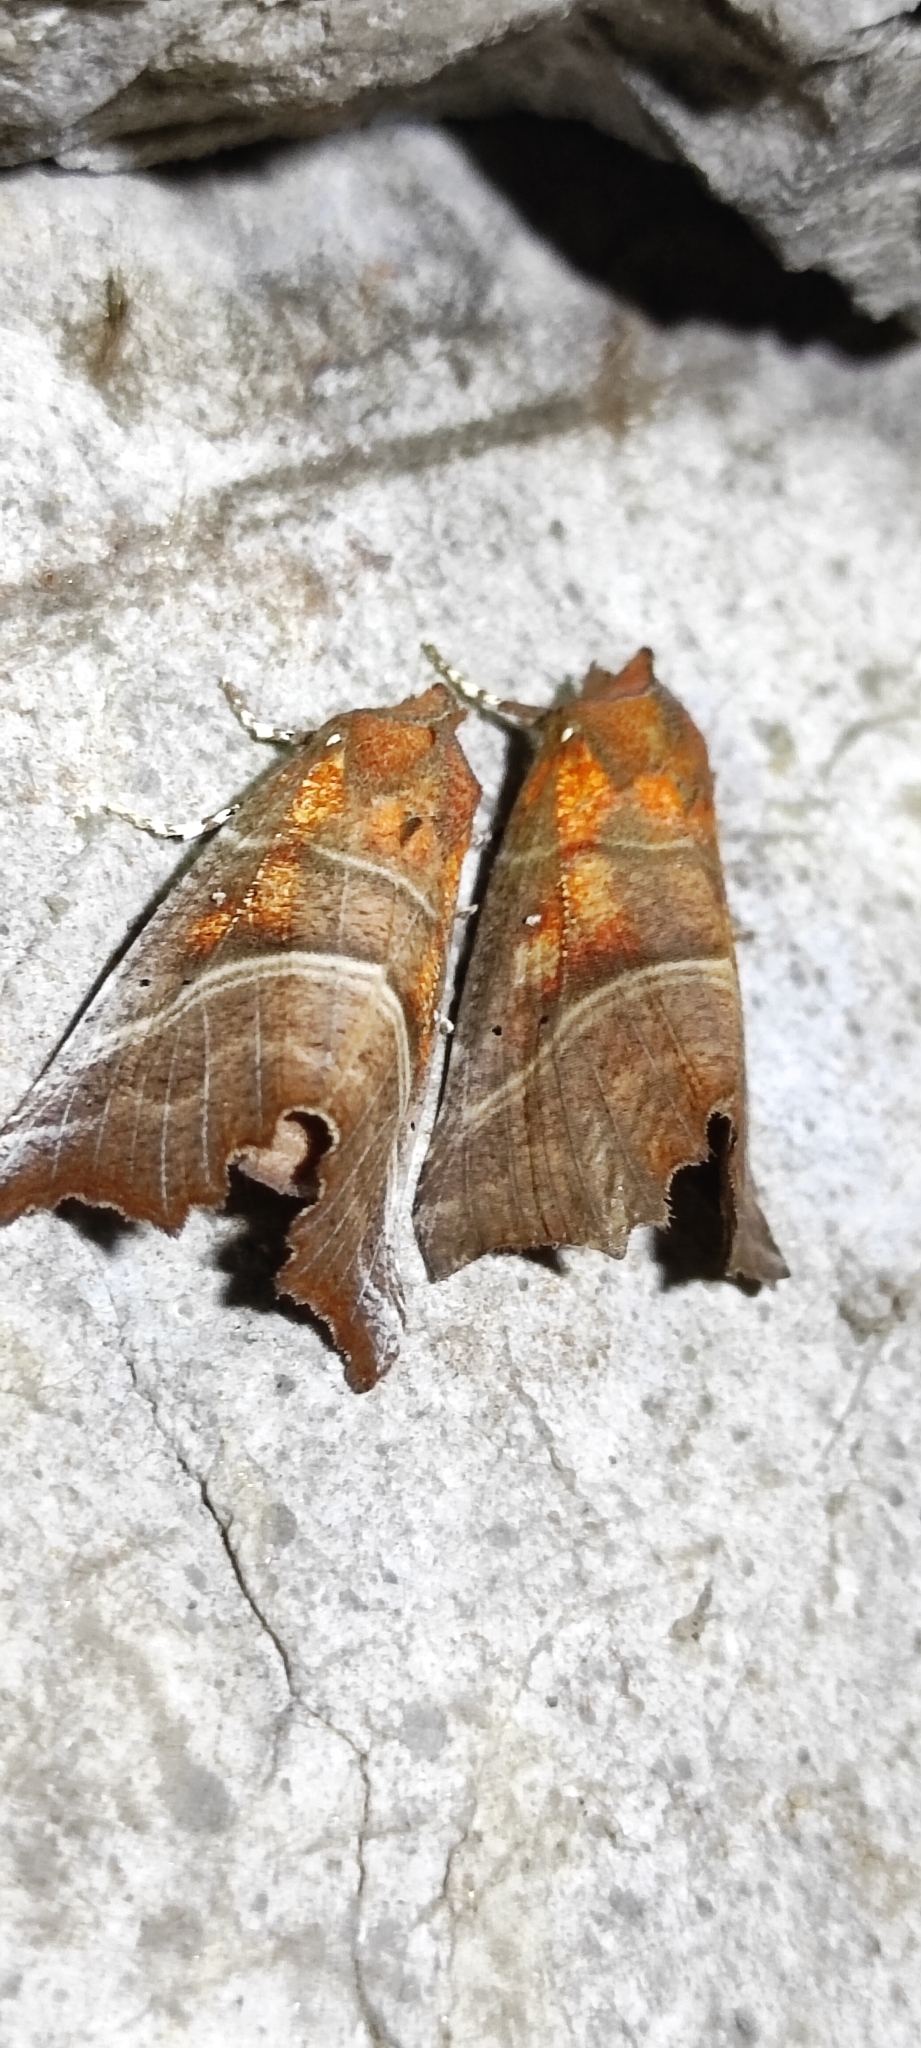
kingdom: Animalia
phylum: Arthropoda
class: Insecta
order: Lepidoptera
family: Erebidae
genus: Scoliopteryx
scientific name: Scoliopteryx libatrix
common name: Herald
